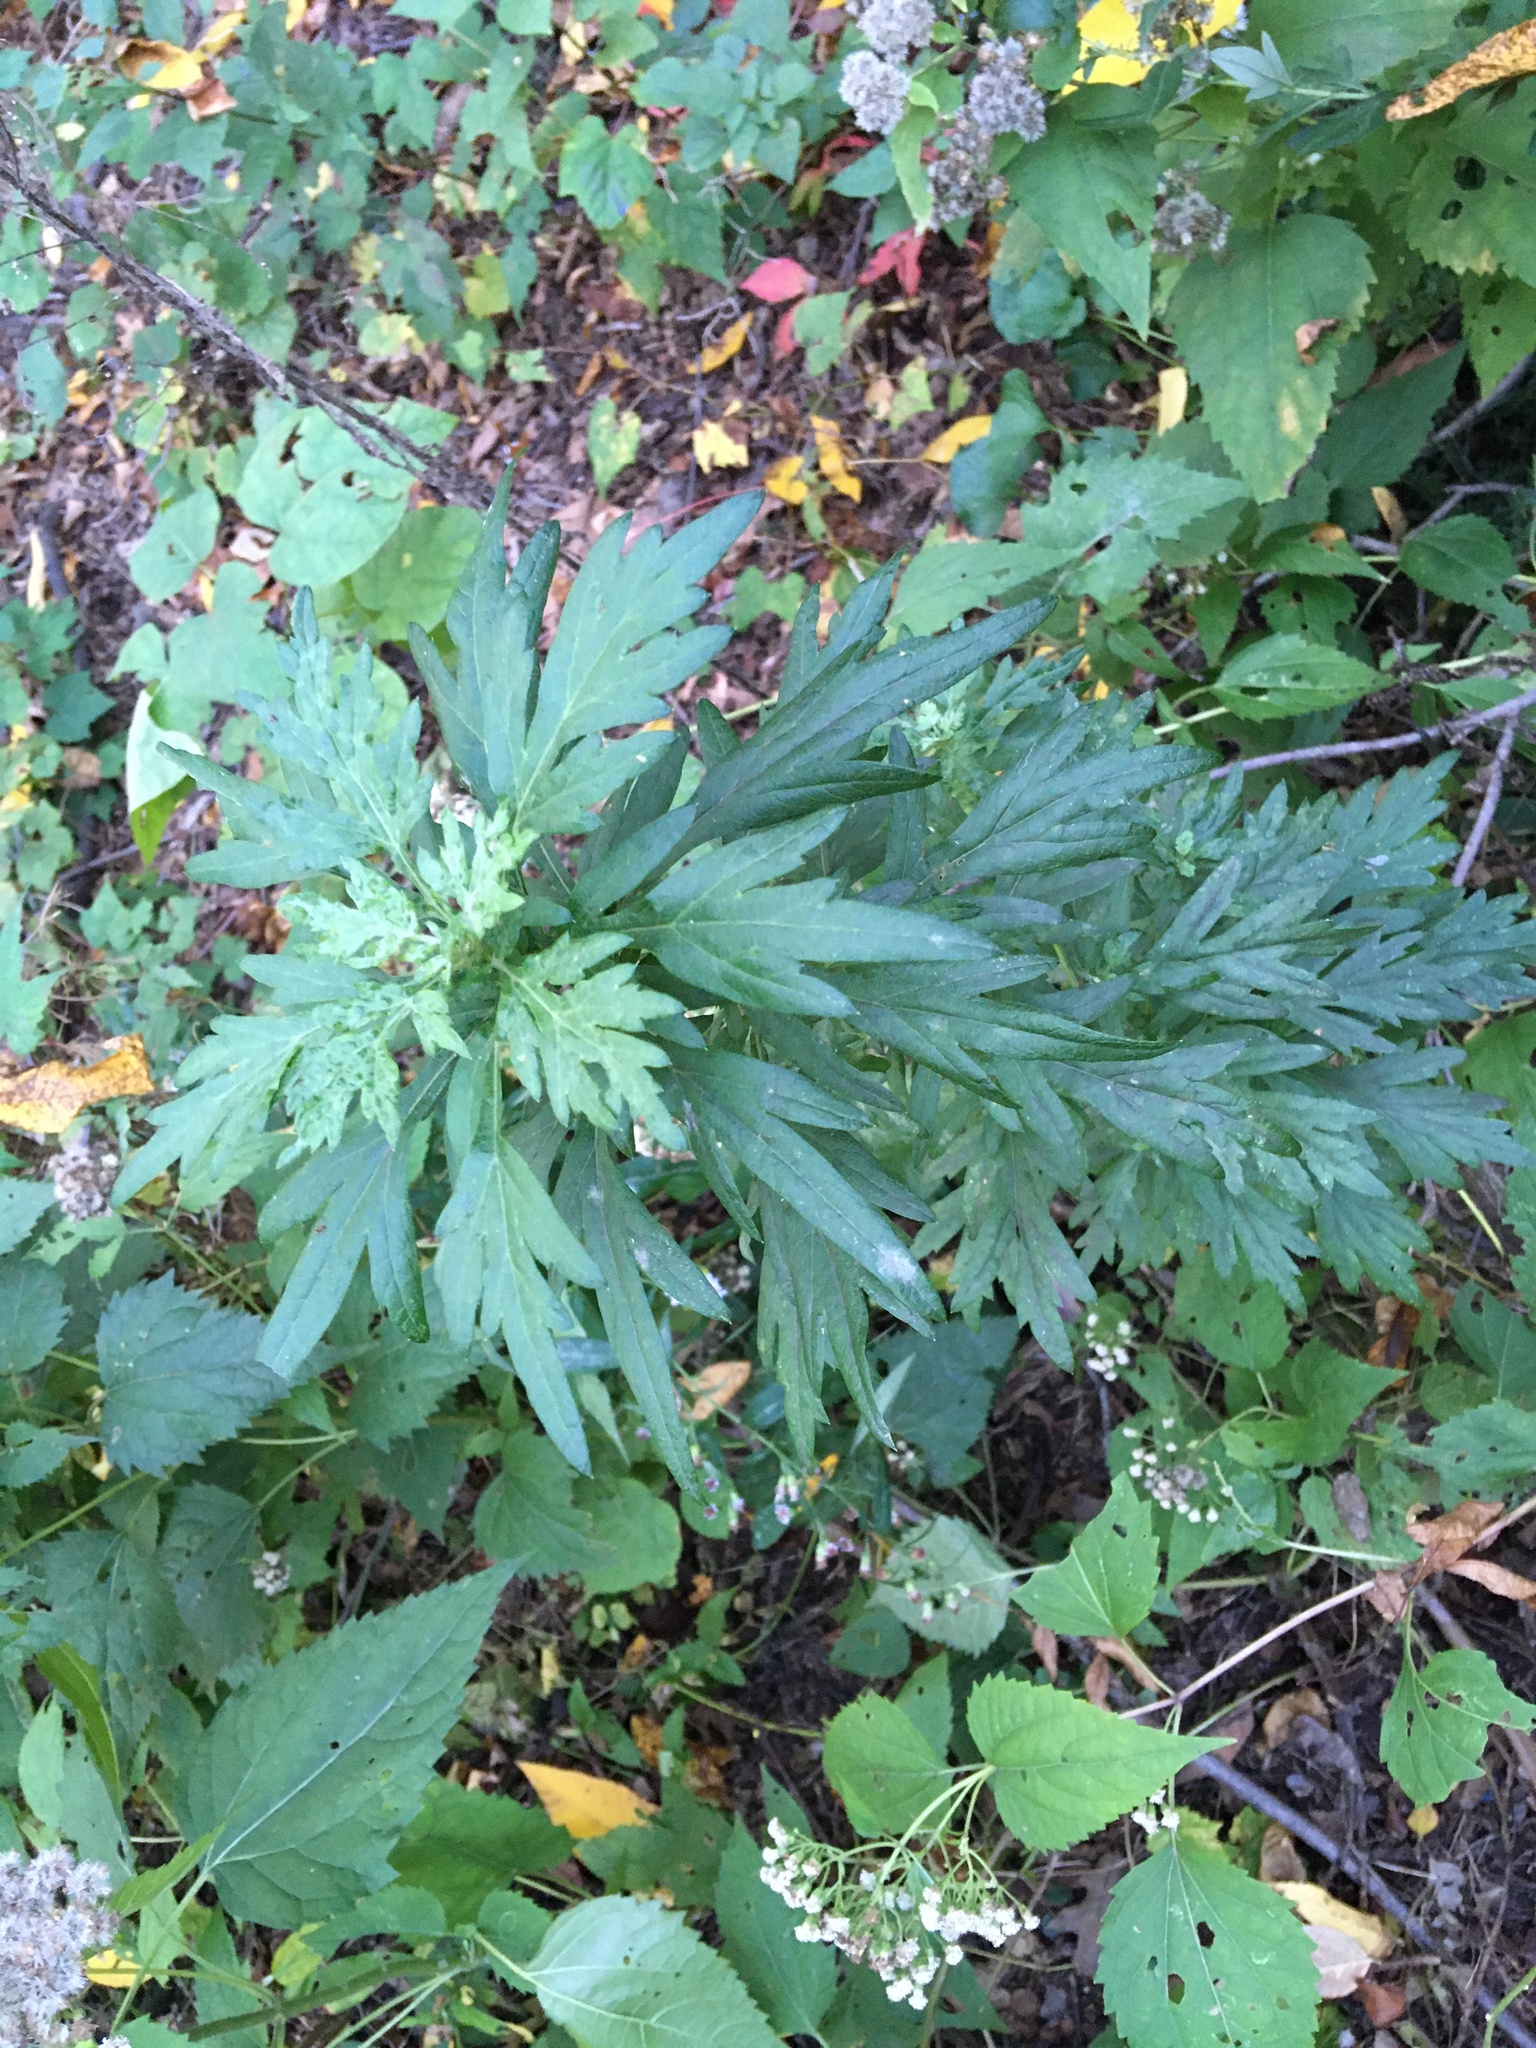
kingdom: Plantae
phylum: Tracheophyta
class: Magnoliopsida
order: Asterales
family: Asteraceae
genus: Artemisia
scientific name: Artemisia vulgaris
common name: Mugwort
